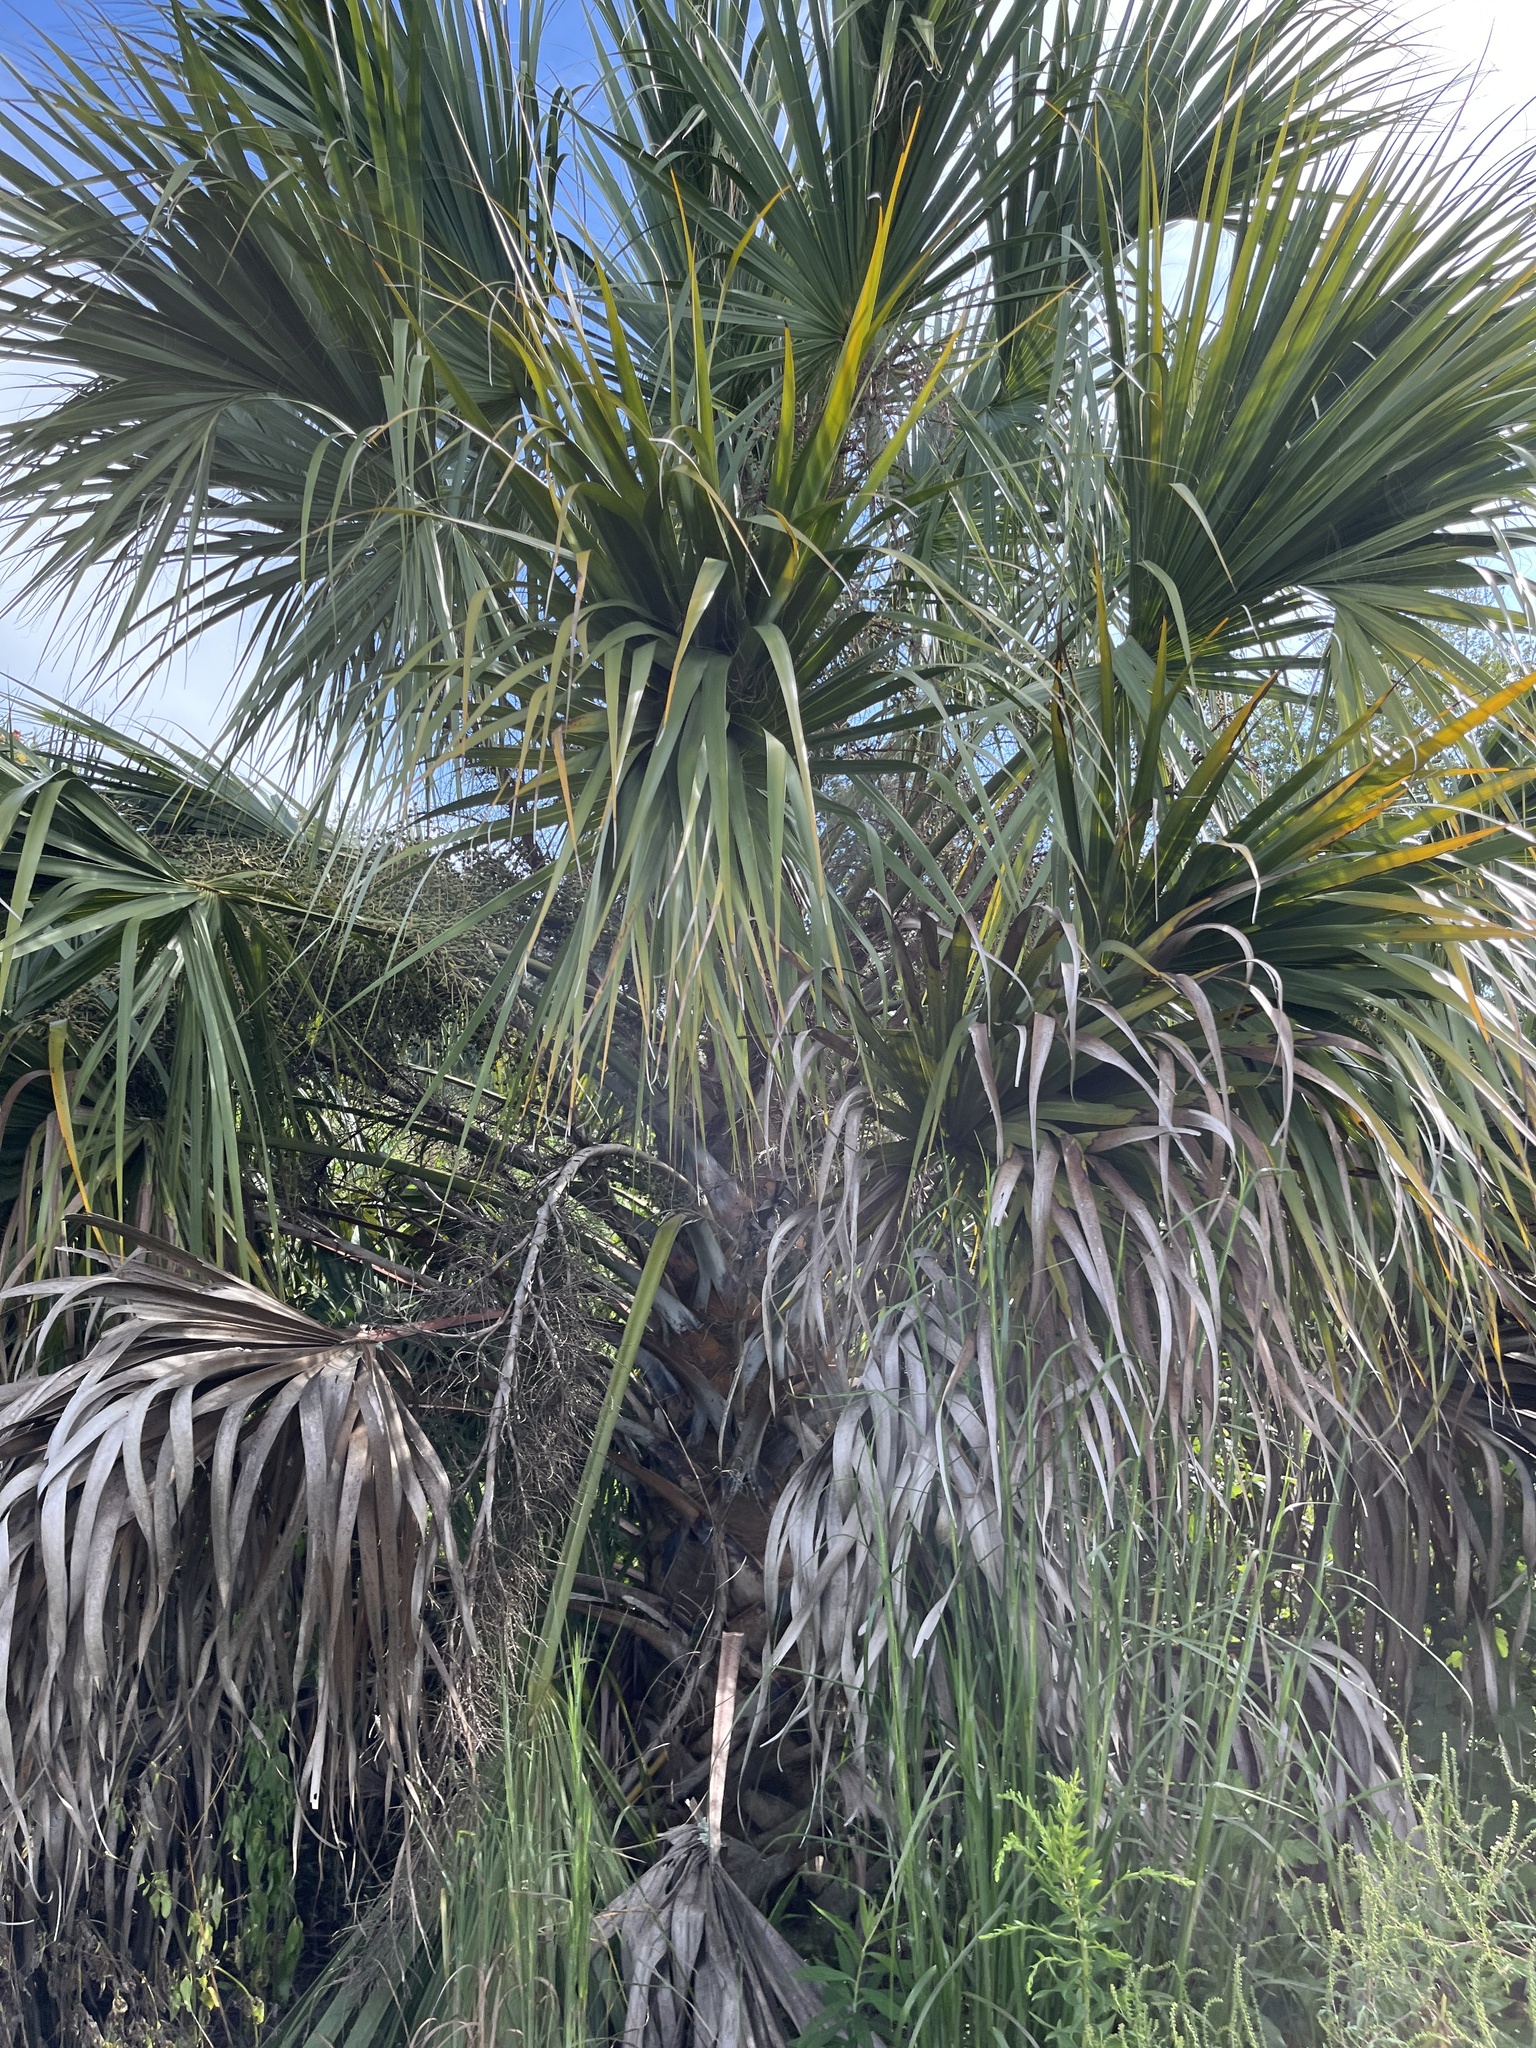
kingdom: Plantae
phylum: Tracheophyta
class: Liliopsida
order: Arecales
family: Arecaceae
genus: Sabal
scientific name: Sabal palmetto
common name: Blue palmetto
